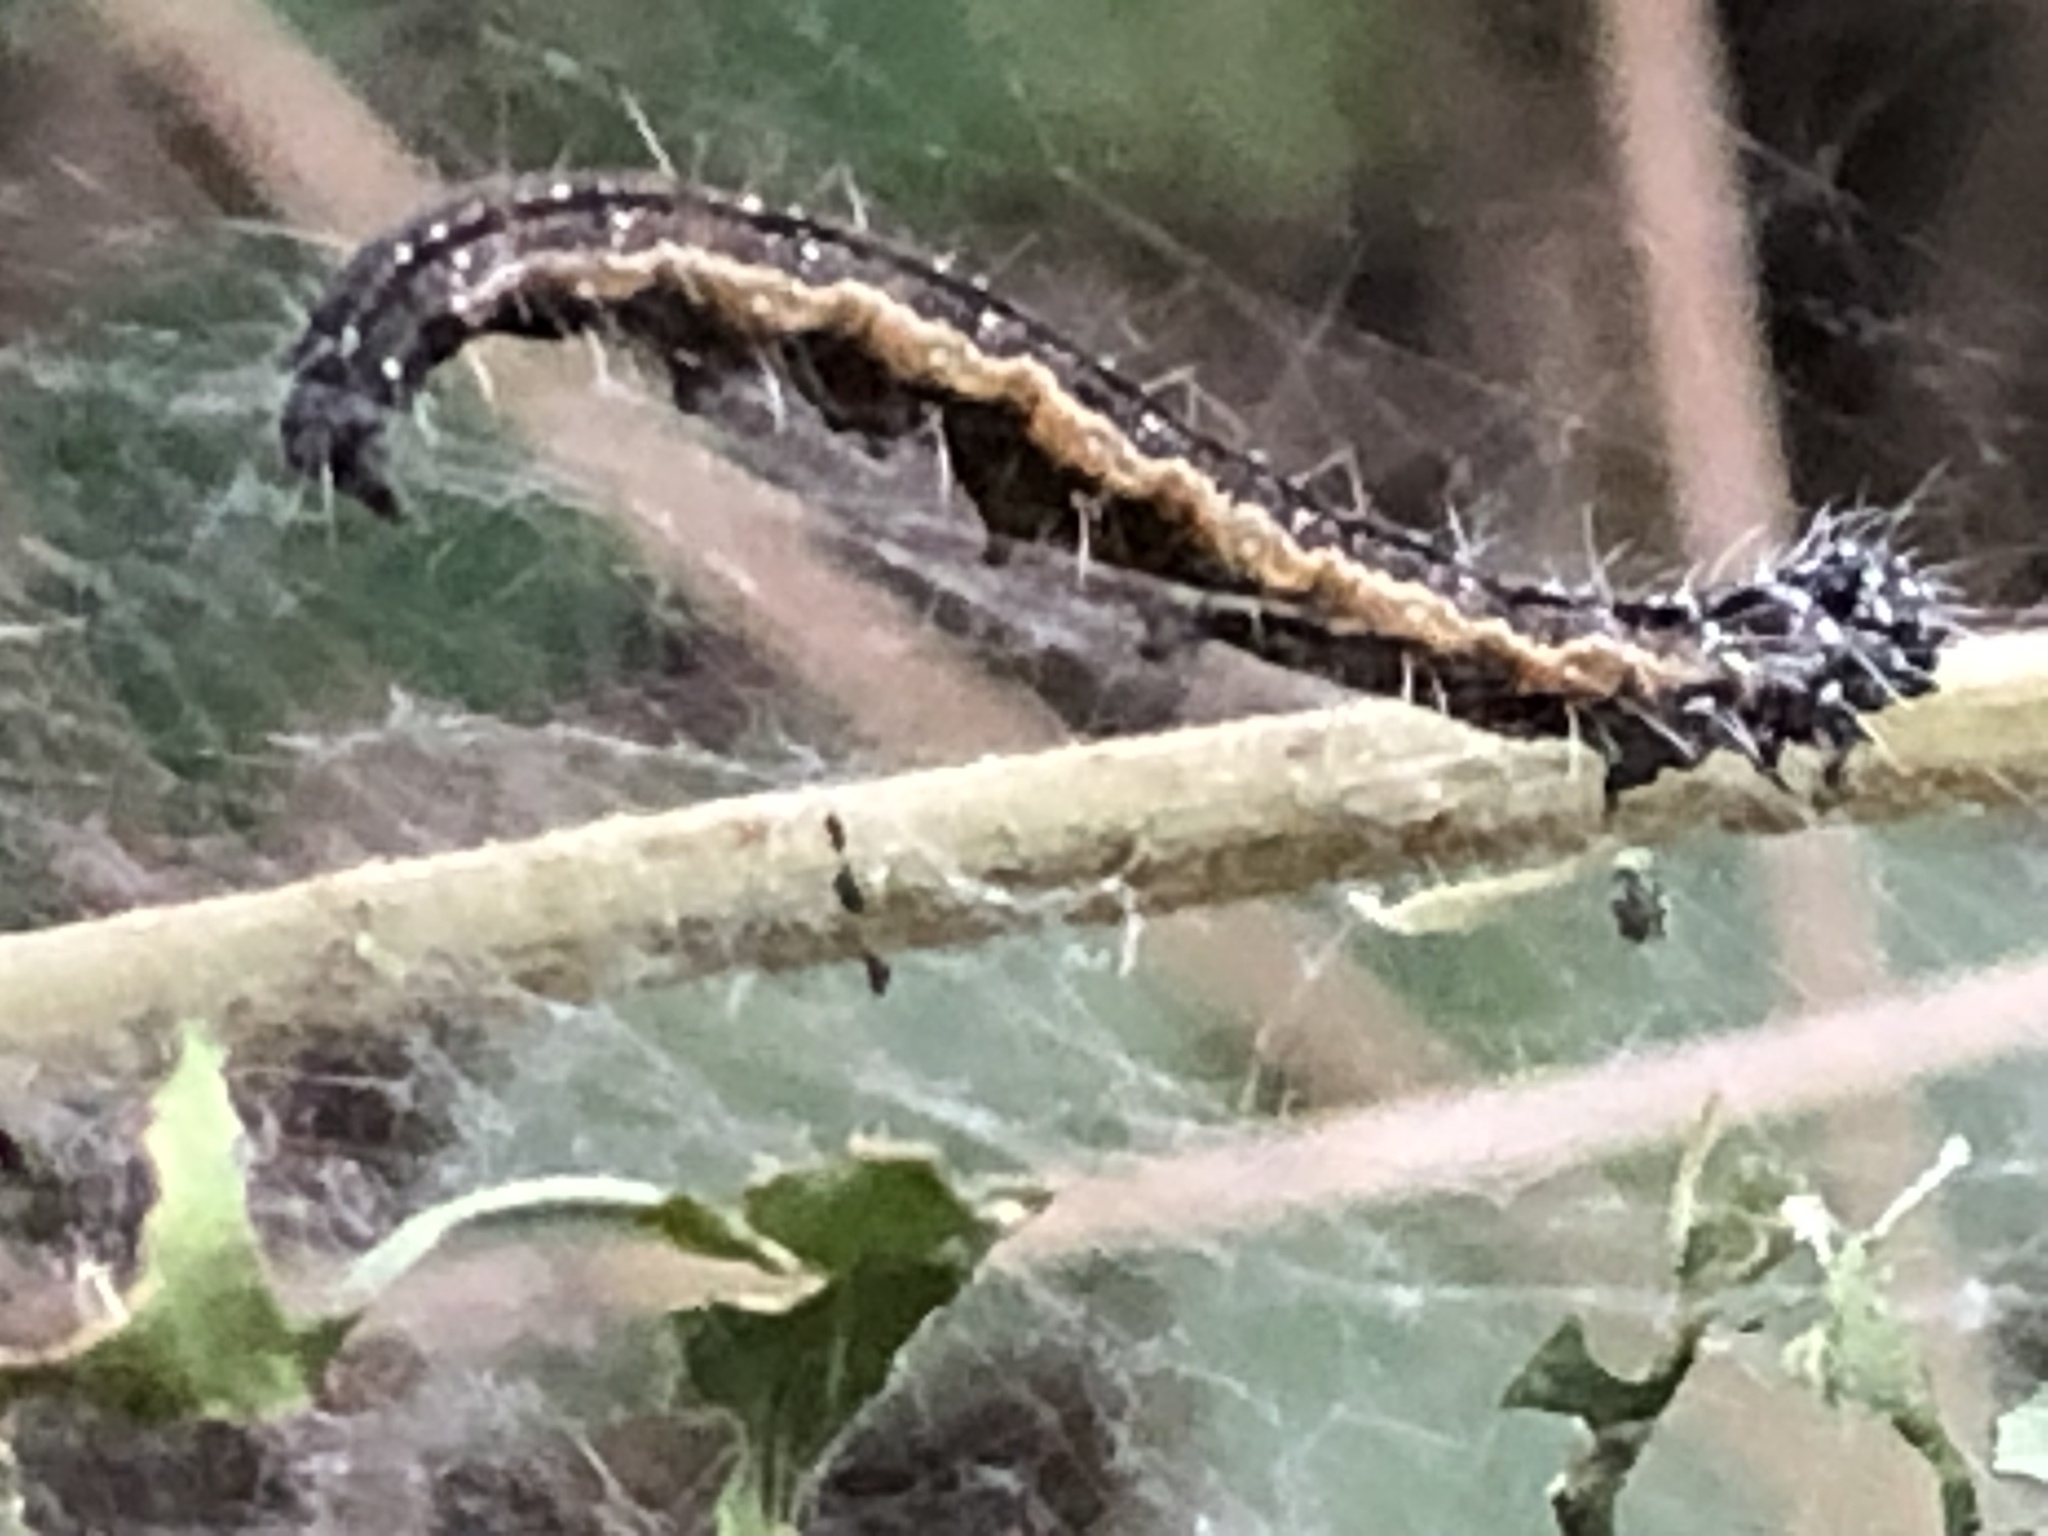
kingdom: Animalia
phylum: Arthropoda
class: Insecta
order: Lepidoptera
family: Attevidae
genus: Atteva
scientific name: Atteva punctella
